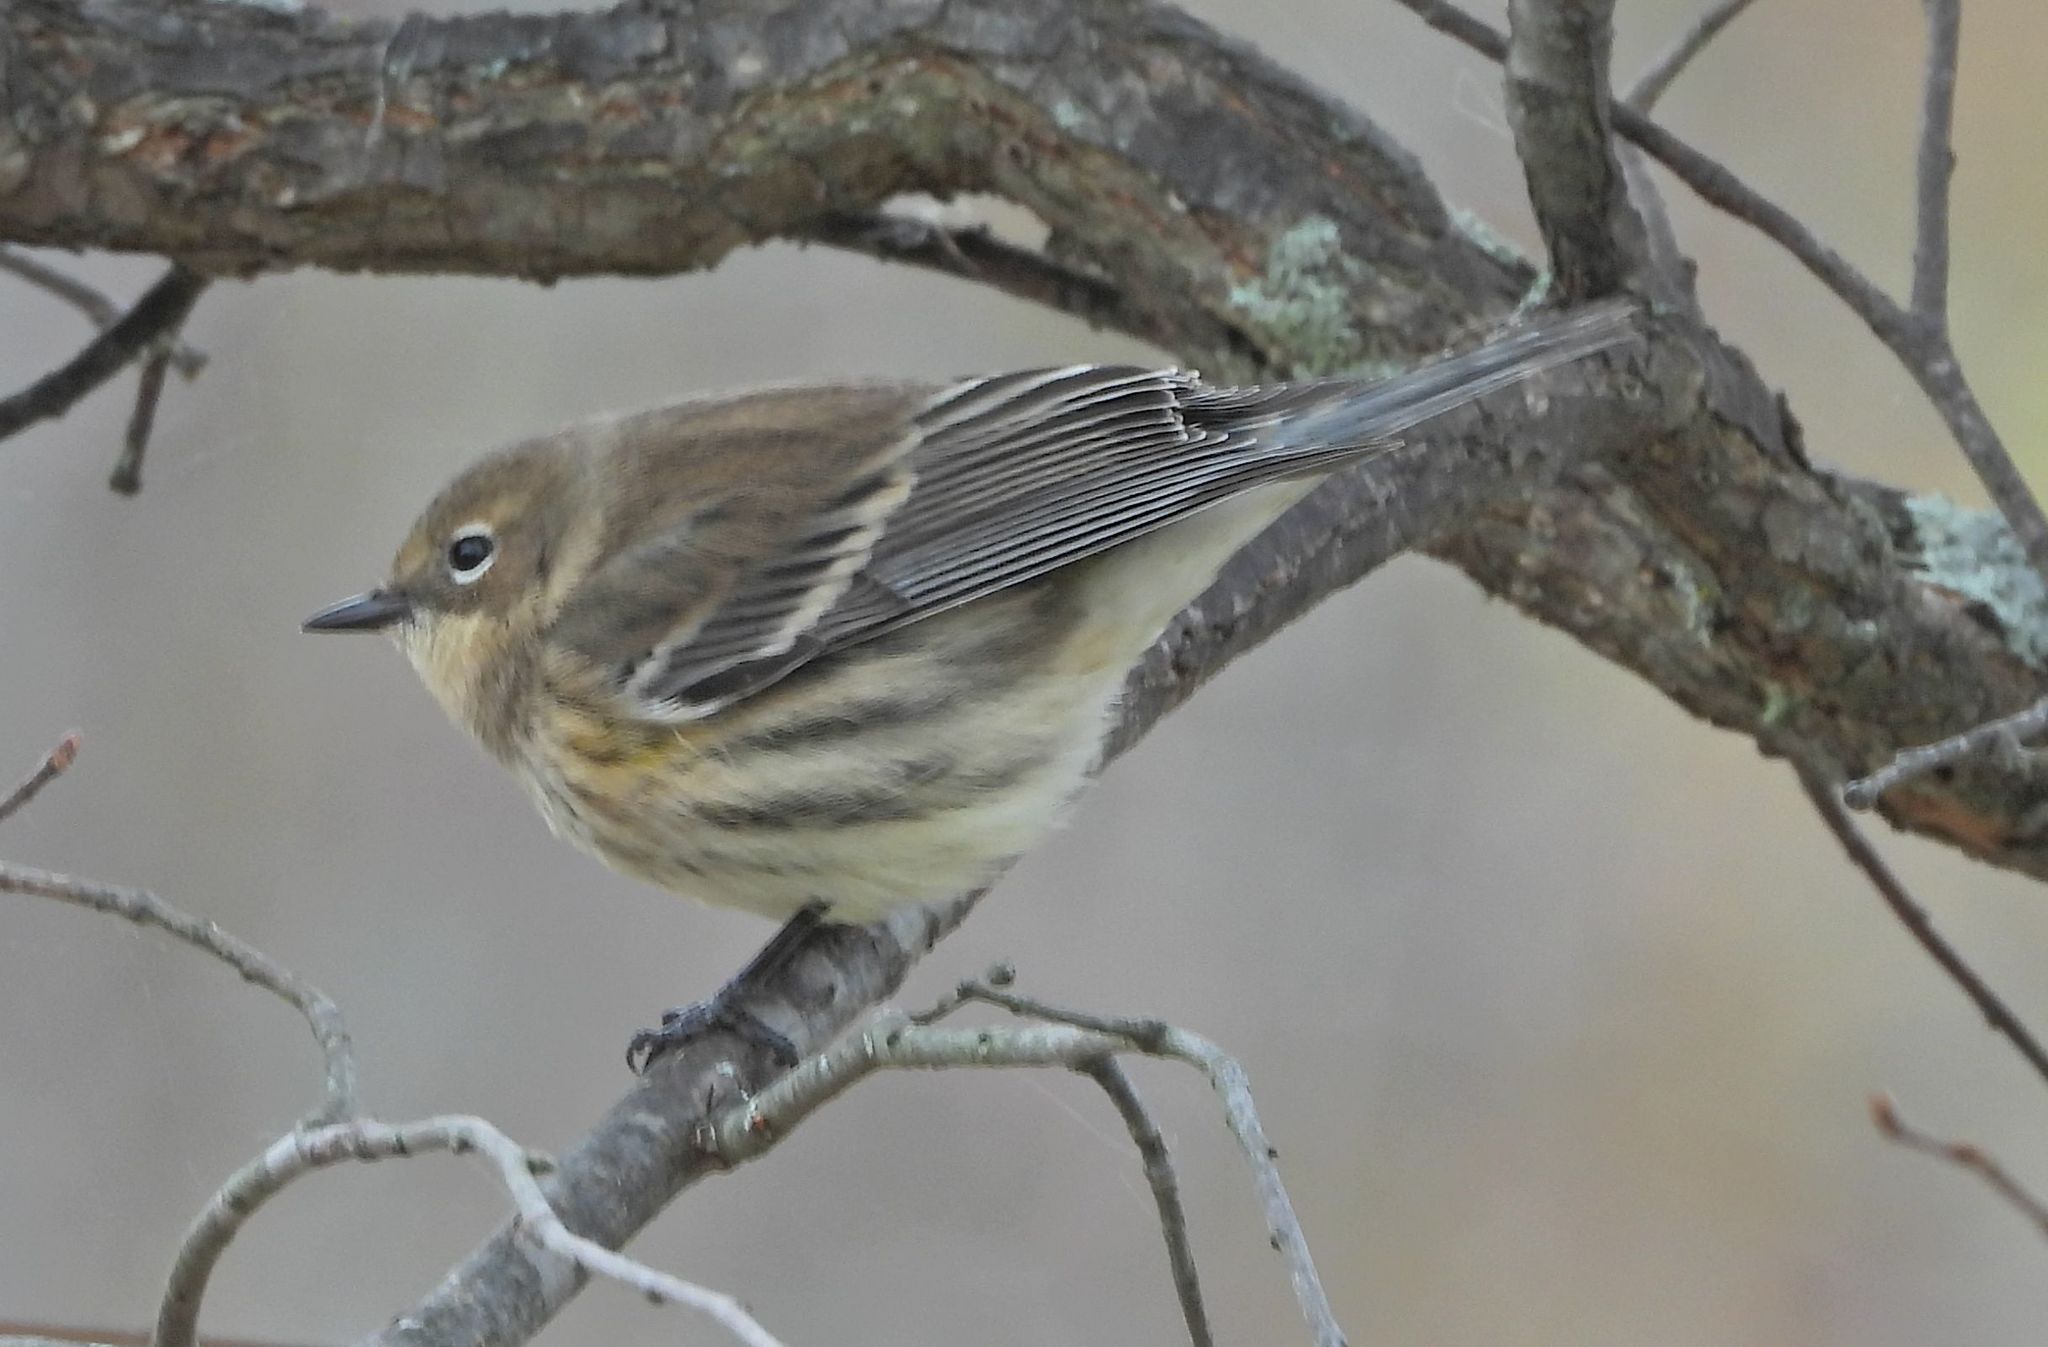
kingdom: Animalia
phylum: Chordata
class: Aves
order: Passeriformes
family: Parulidae
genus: Setophaga
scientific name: Setophaga coronata
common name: Myrtle warbler
